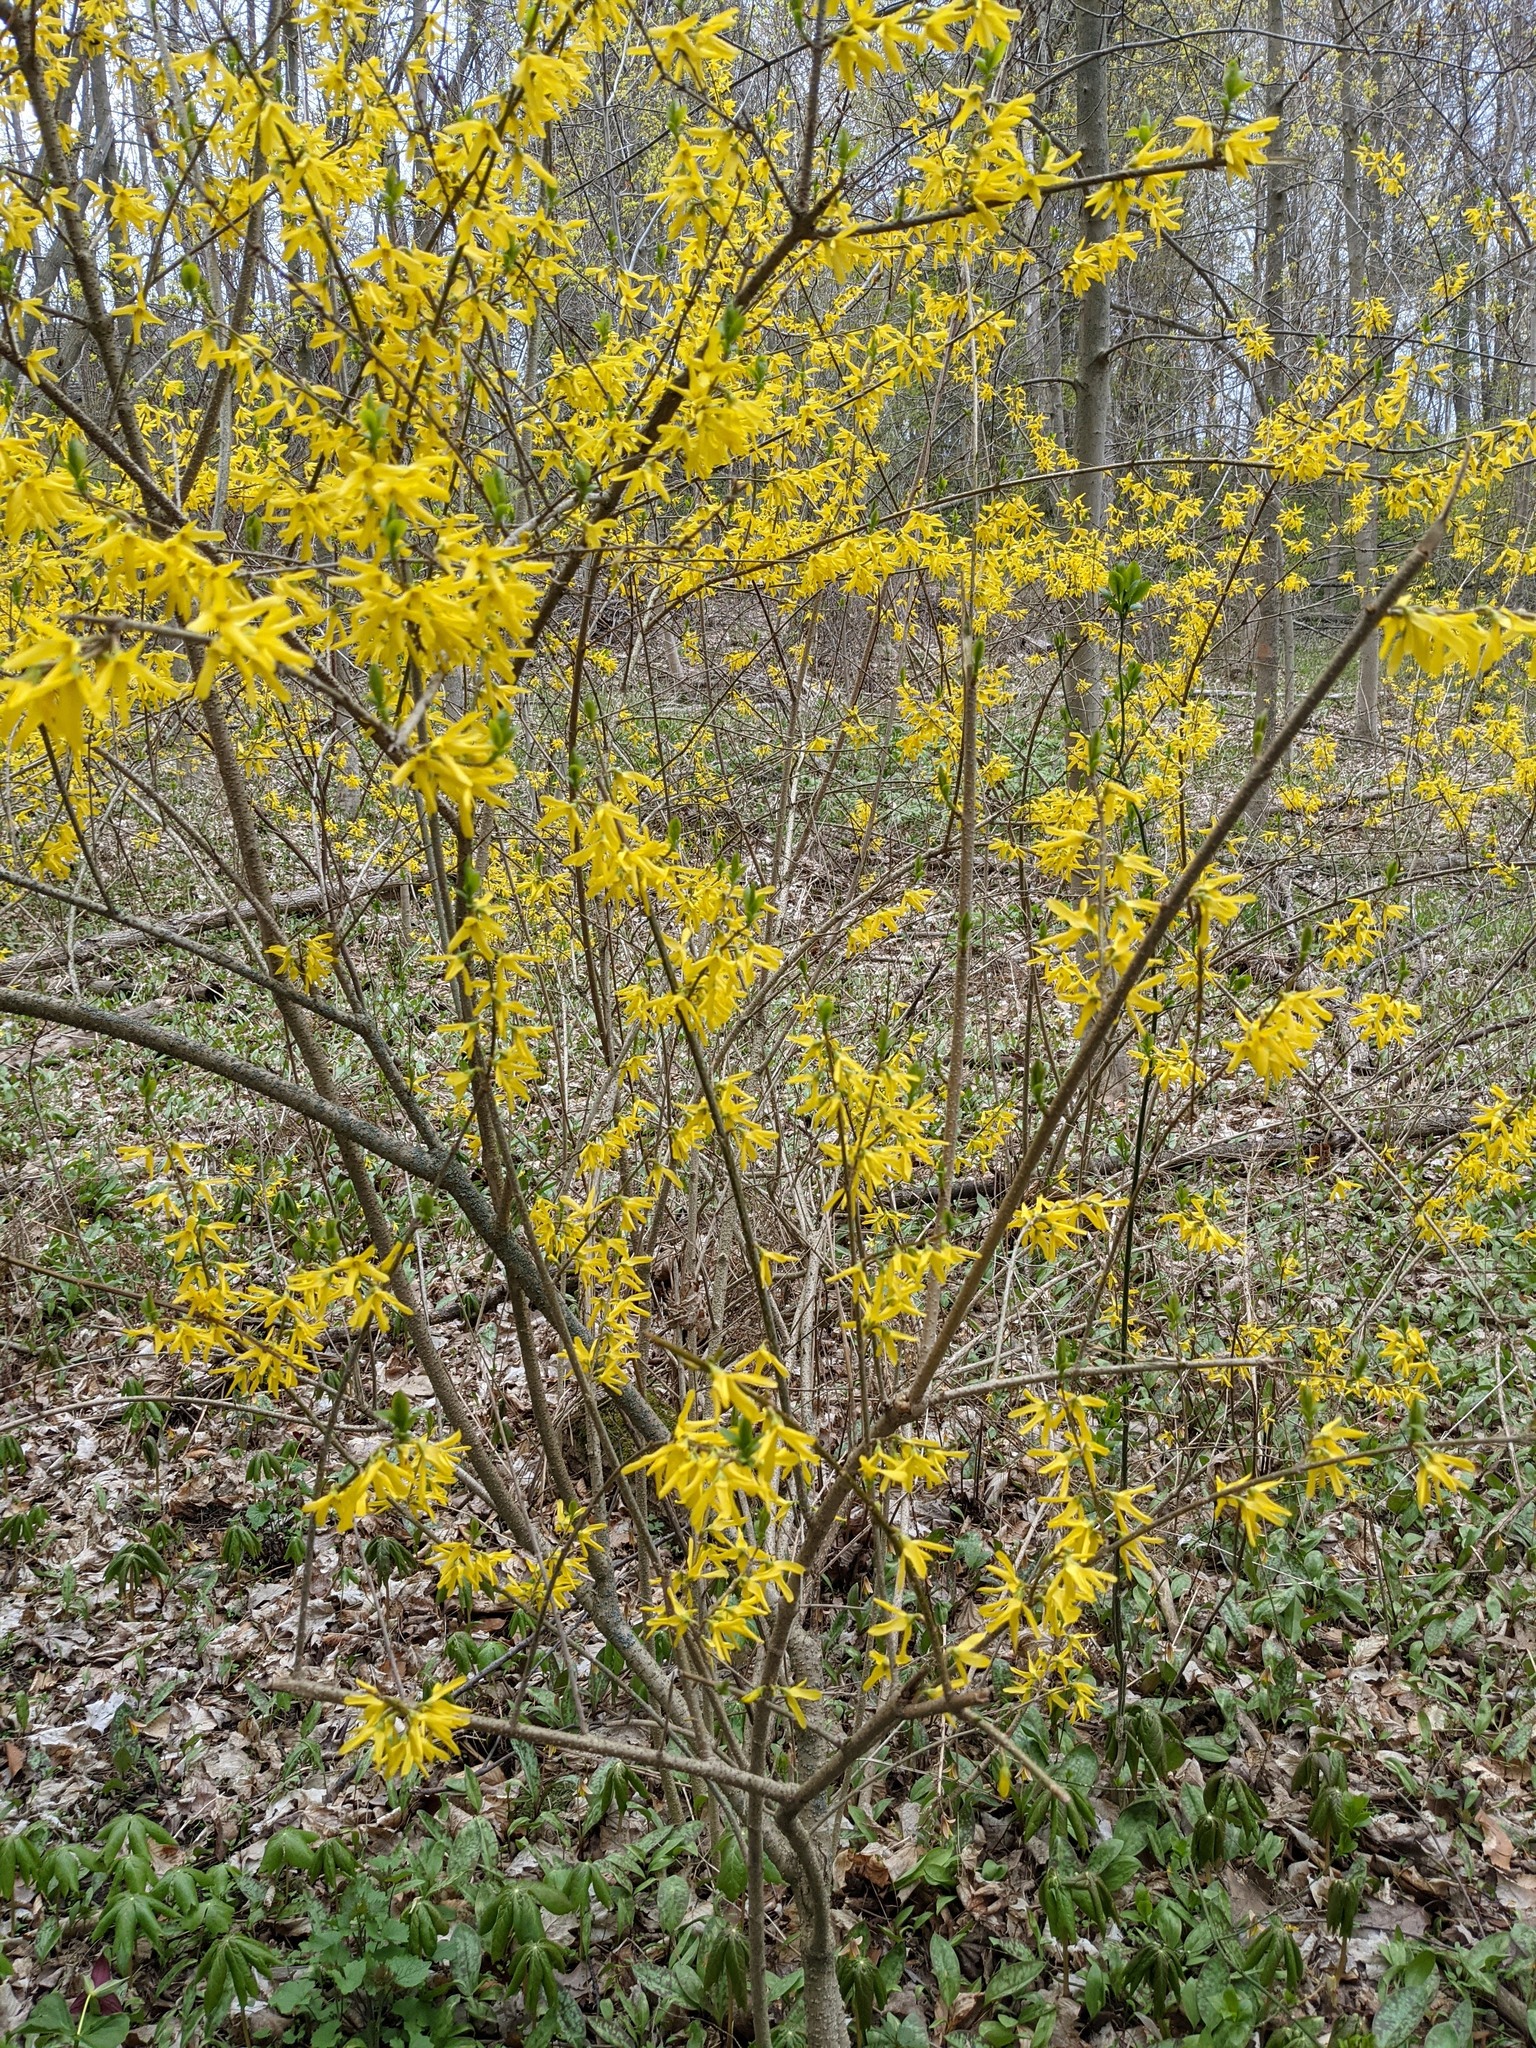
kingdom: Plantae
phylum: Tracheophyta
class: Magnoliopsida
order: Lamiales
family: Oleaceae
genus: Forsythia
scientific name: Forsythia intermedia
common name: Forsythia
